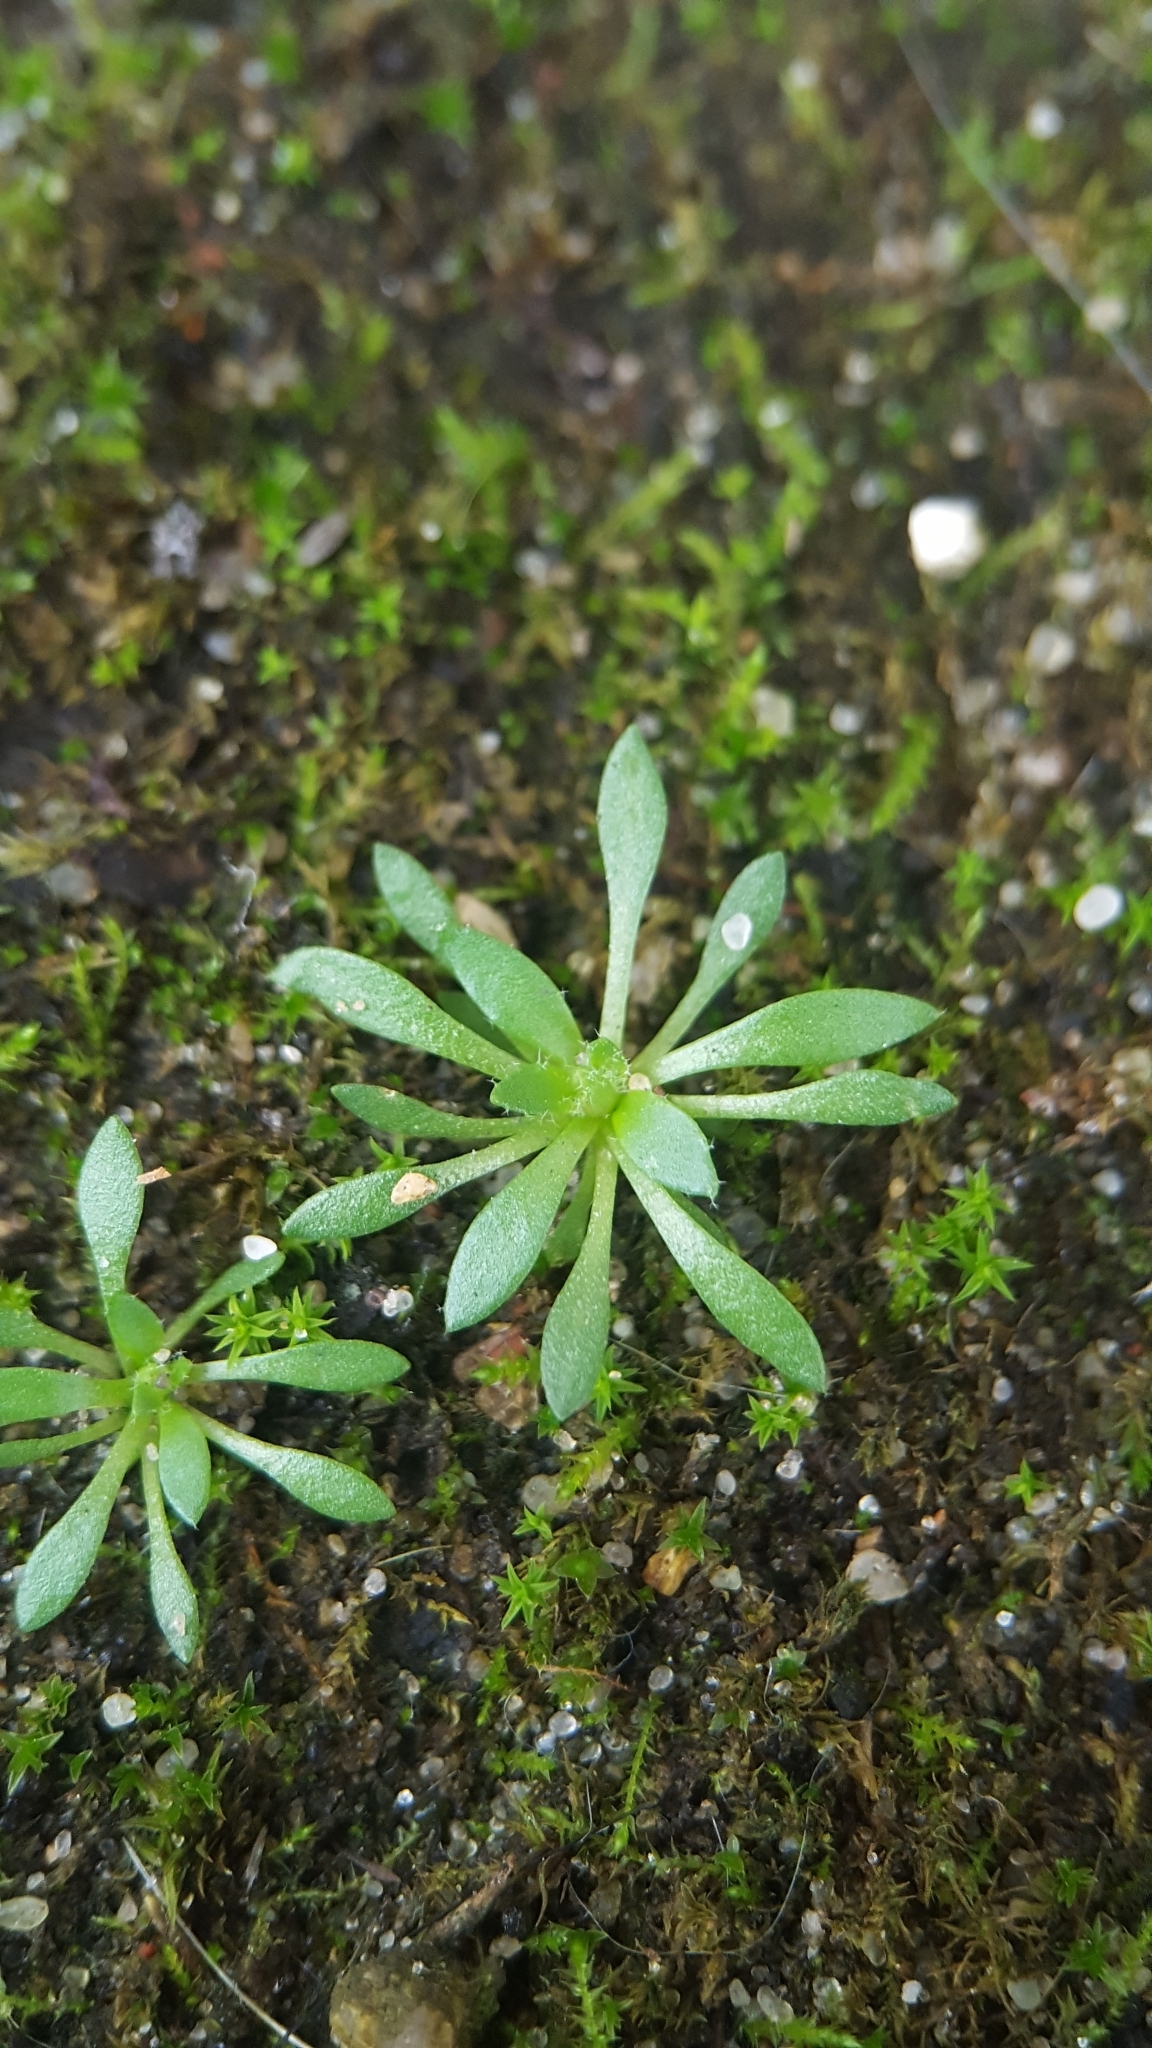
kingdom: Plantae
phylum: Tracheophyta
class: Magnoliopsida
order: Brassicales
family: Brassicaceae
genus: Draba
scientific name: Draba verna
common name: Spring draba
